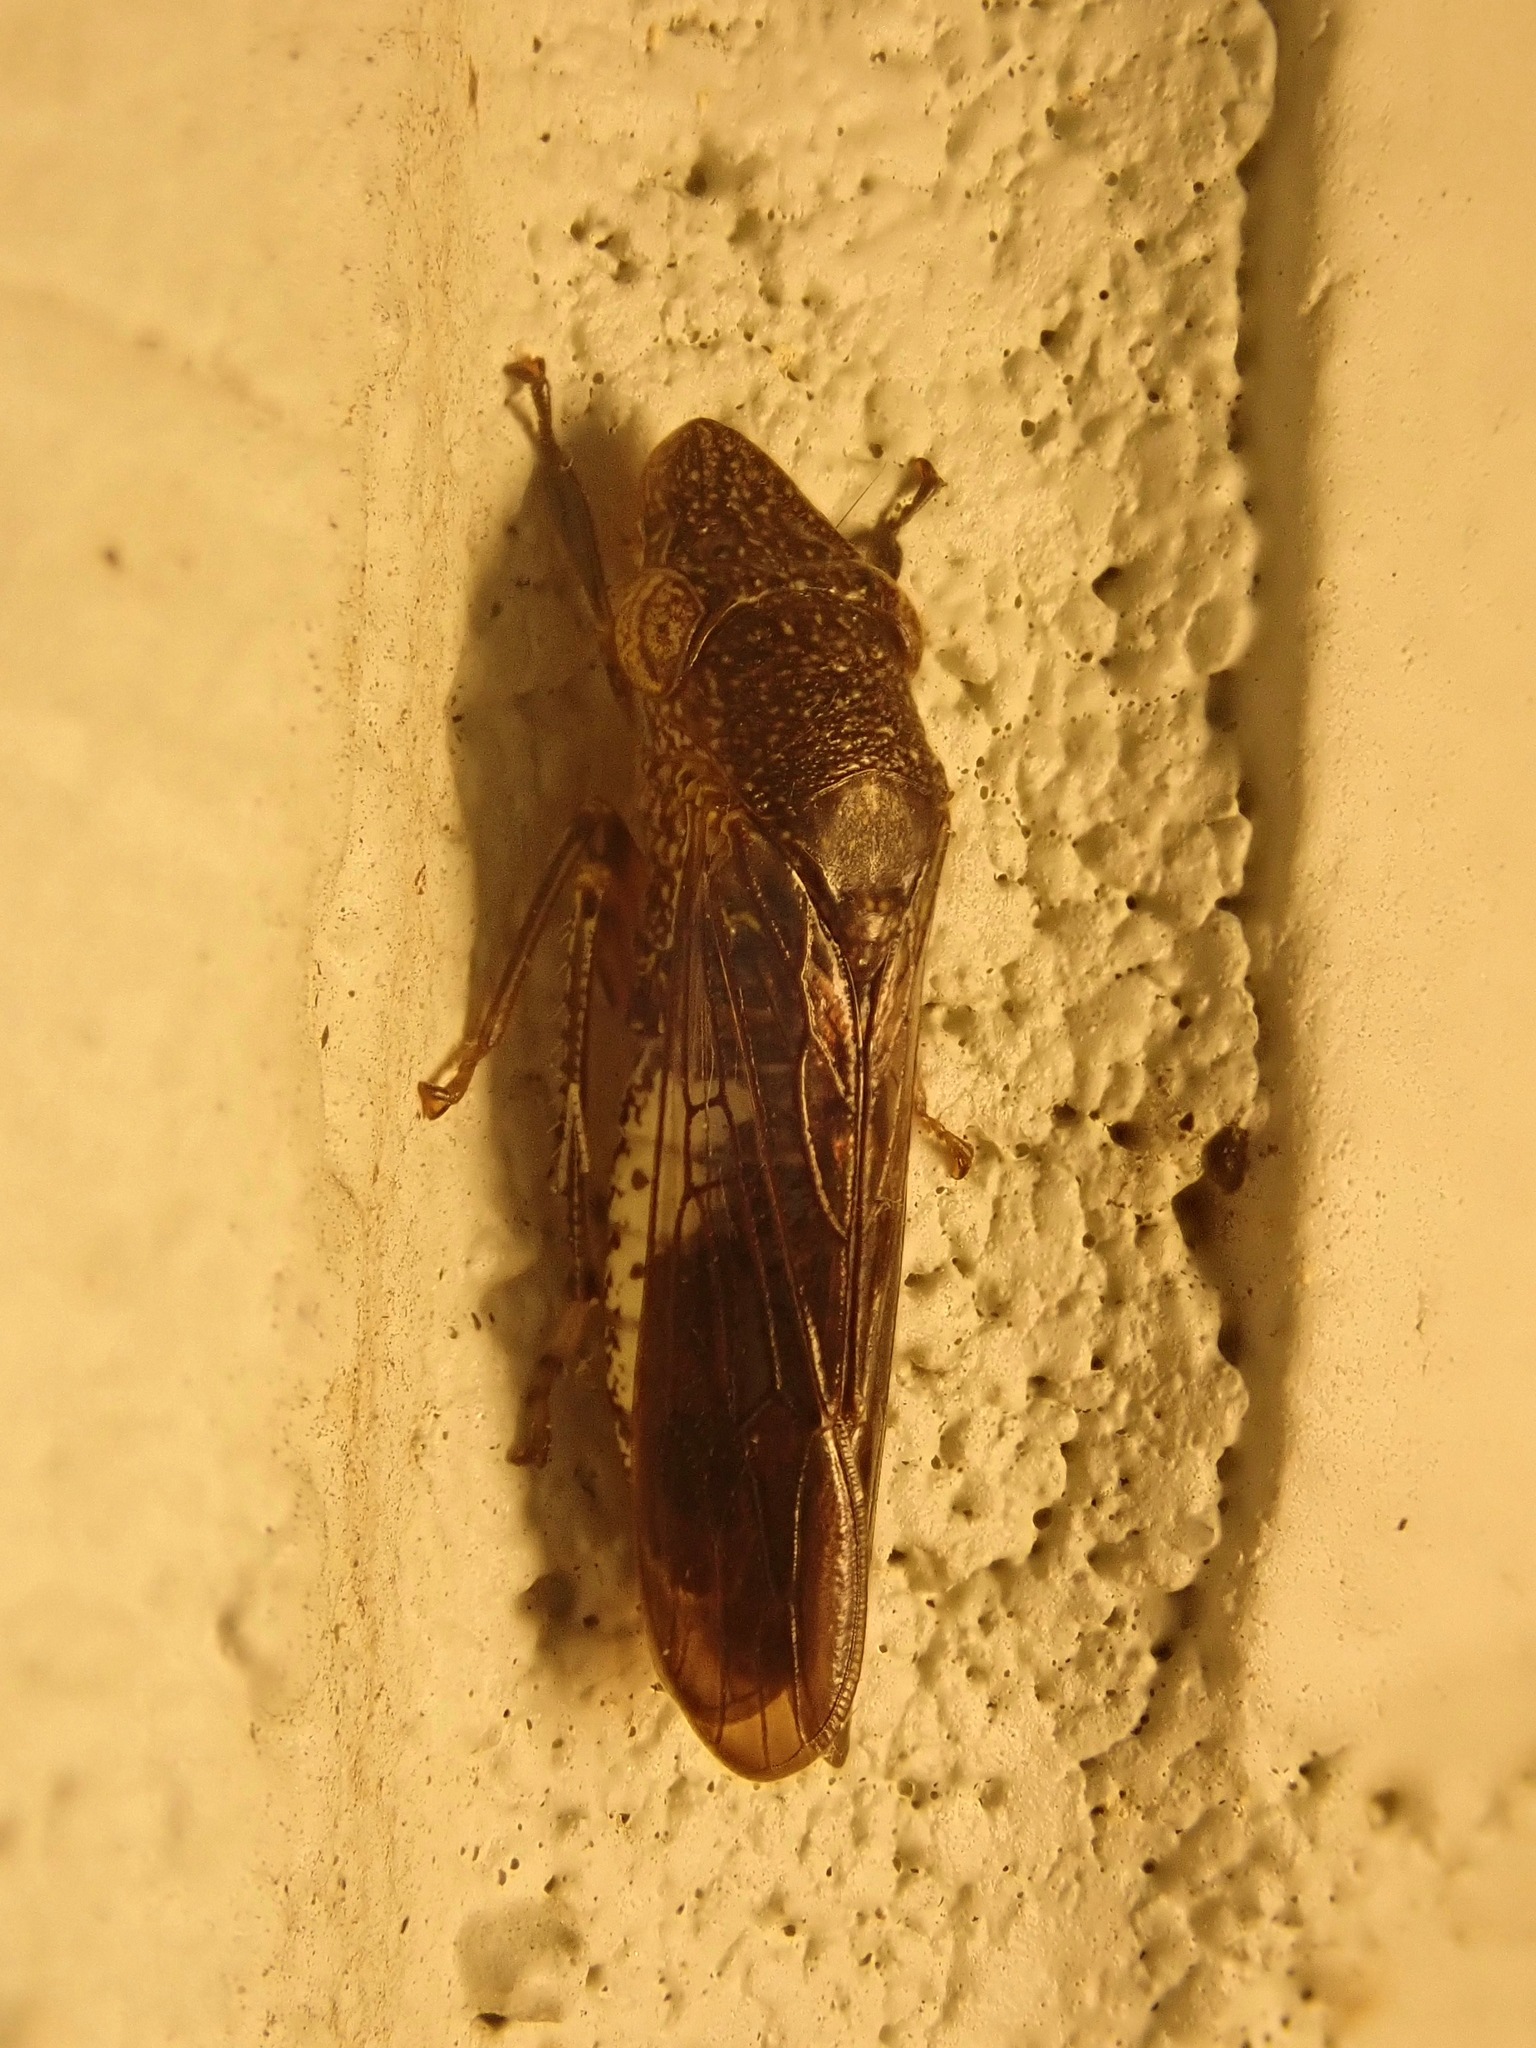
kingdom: Animalia
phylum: Arthropoda
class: Insecta
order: Hemiptera
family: Cicadellidae
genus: Homalodisca
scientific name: Homalodisca vitripennis
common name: Glassy-winged sharpshooter
